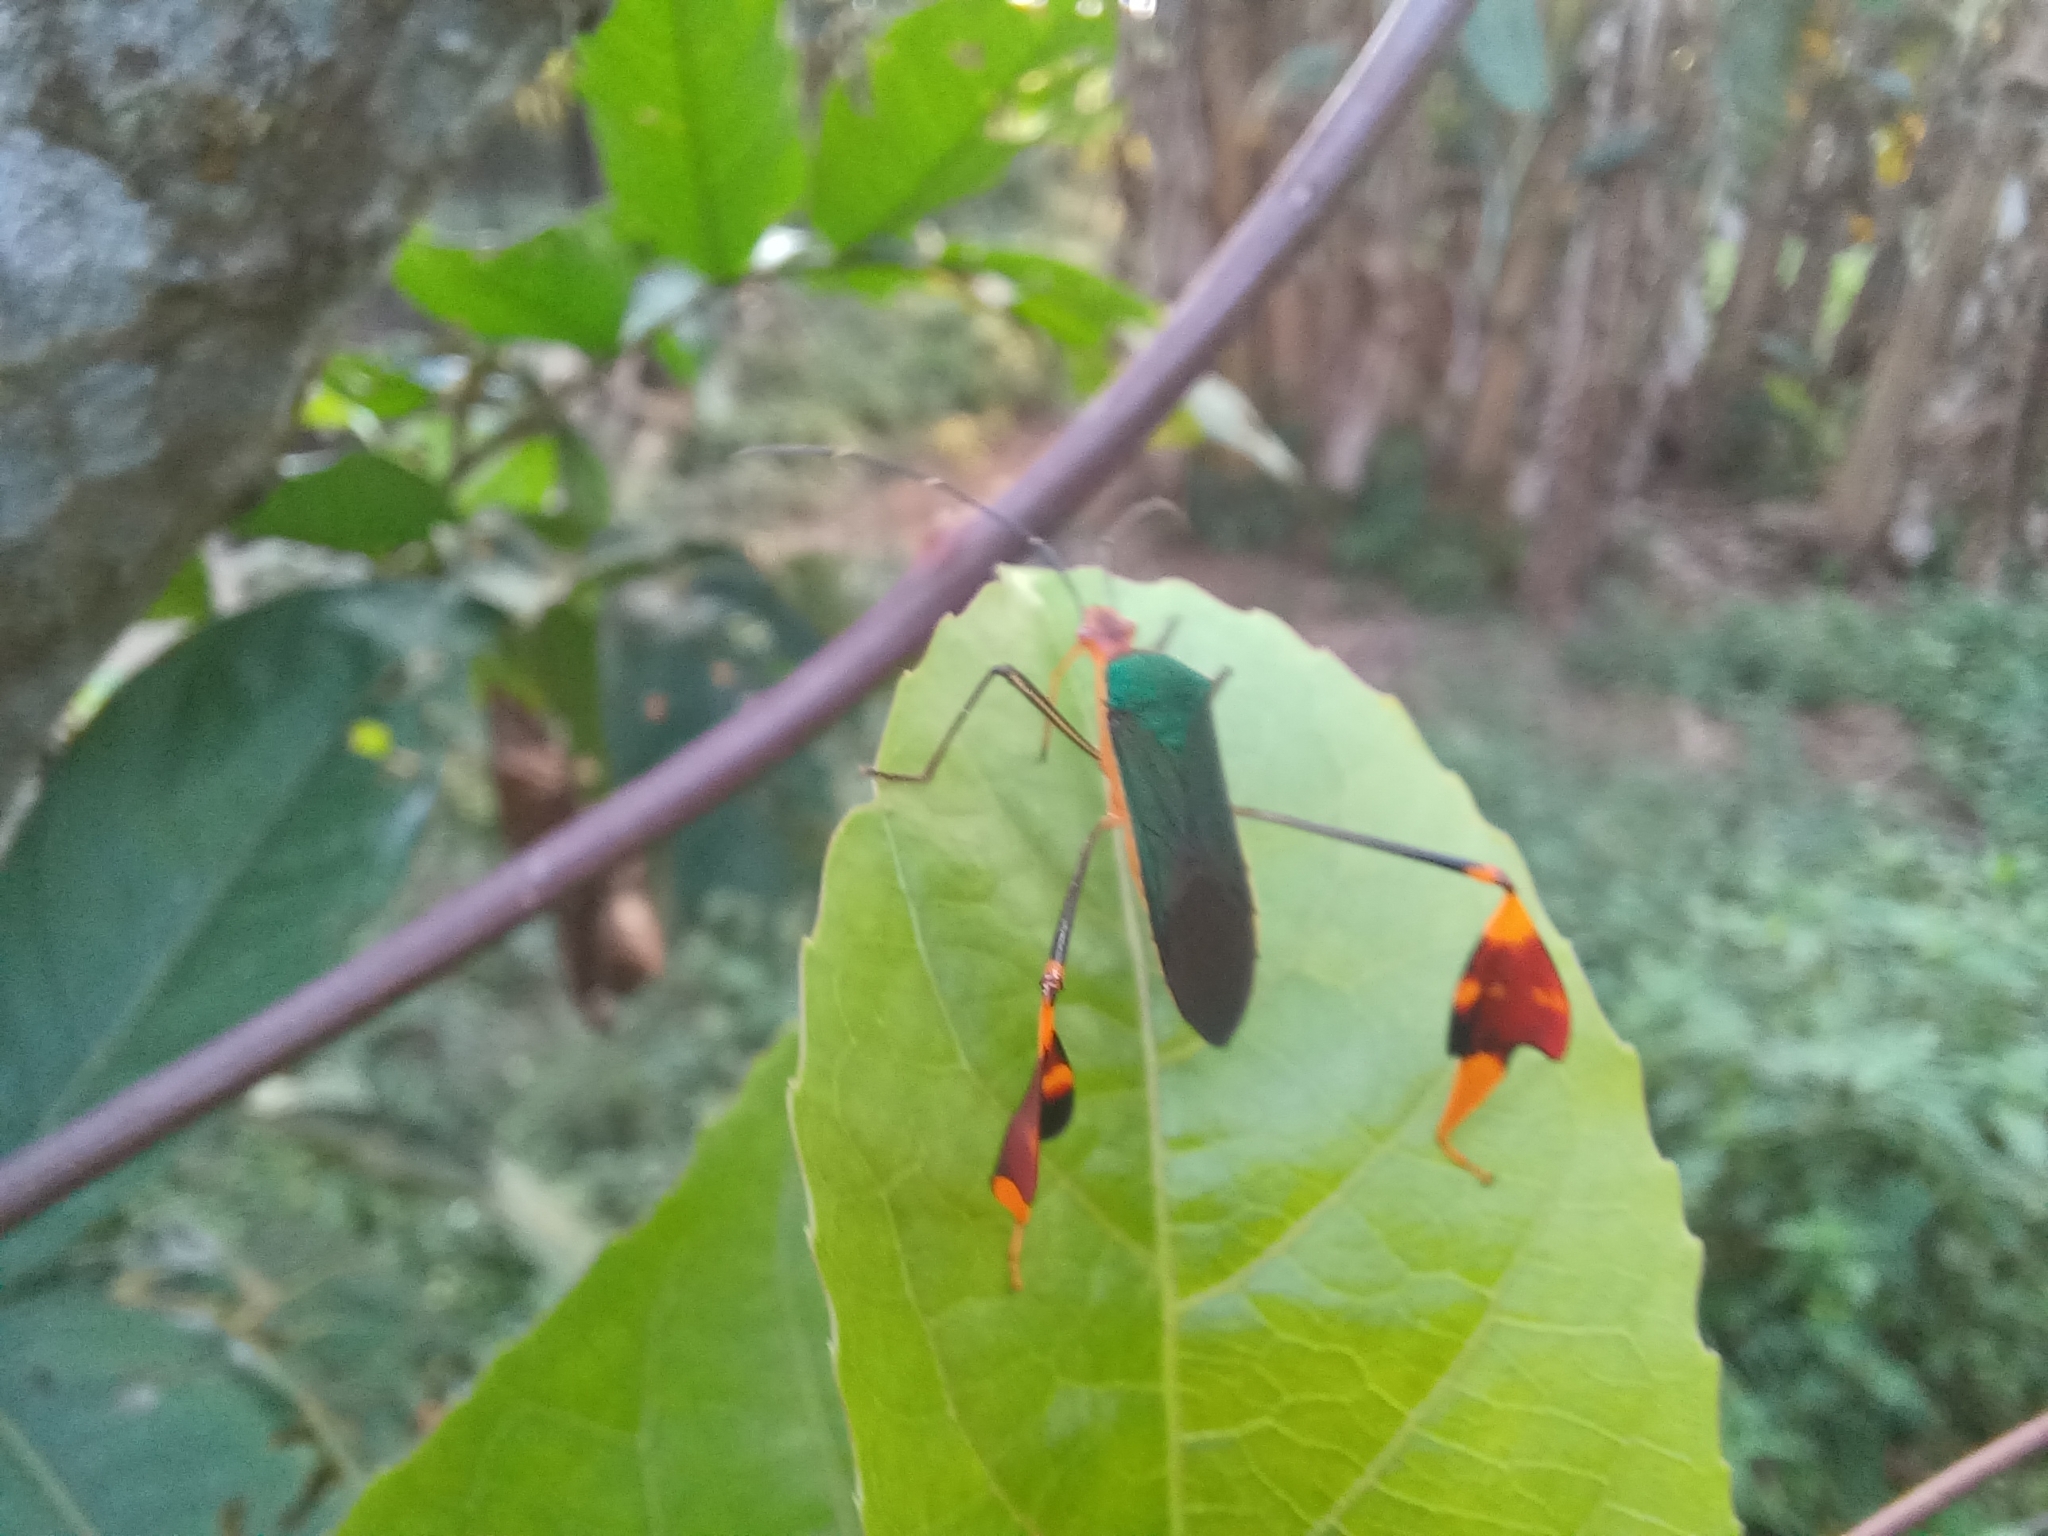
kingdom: Animalia
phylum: Arthropoda
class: Insecta
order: Hemiptera
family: Coreidae
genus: Anisoscelis
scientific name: Anisoscelis foliaceus
